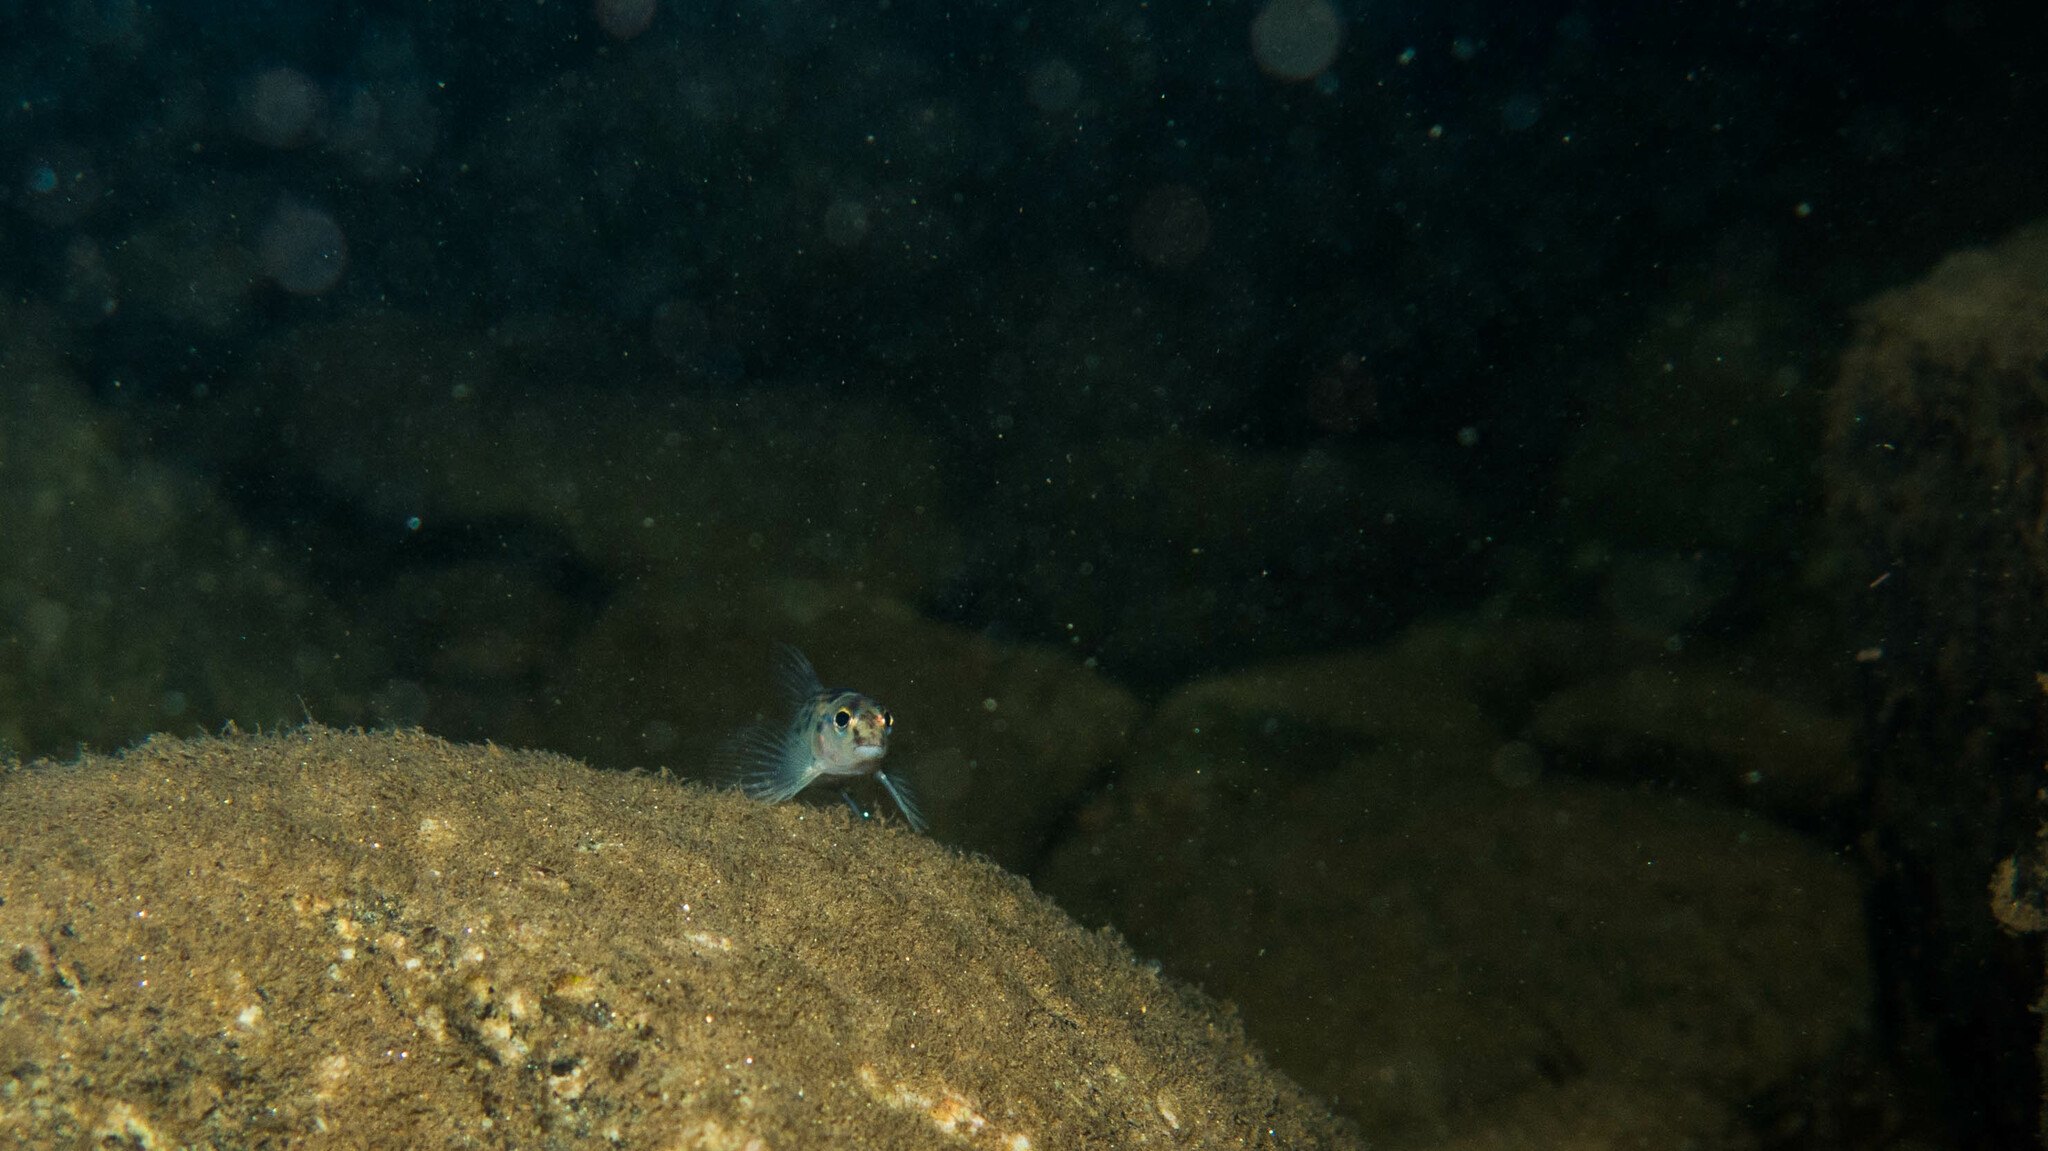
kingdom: Animalia
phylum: Chordata
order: Characiformes
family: Crenuchidae
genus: Characidium
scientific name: Characidium japuhybense
